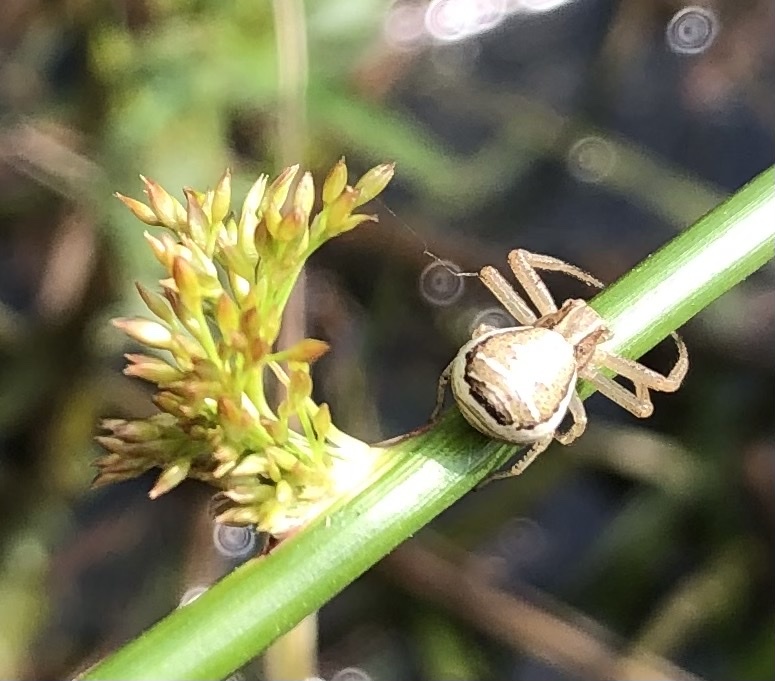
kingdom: Animalia
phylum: Arthropoda
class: Arachnida
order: Araneae
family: Thomisidae
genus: Xysticus
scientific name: Xysticus ulmi
